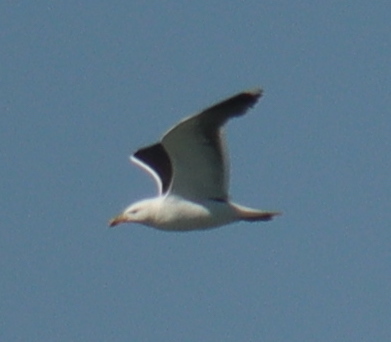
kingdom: Animalia
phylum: Chordata
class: Aves
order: Charadriiformes
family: Laridae
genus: Larus
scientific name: Larus marinus
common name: Great black-backed gull
